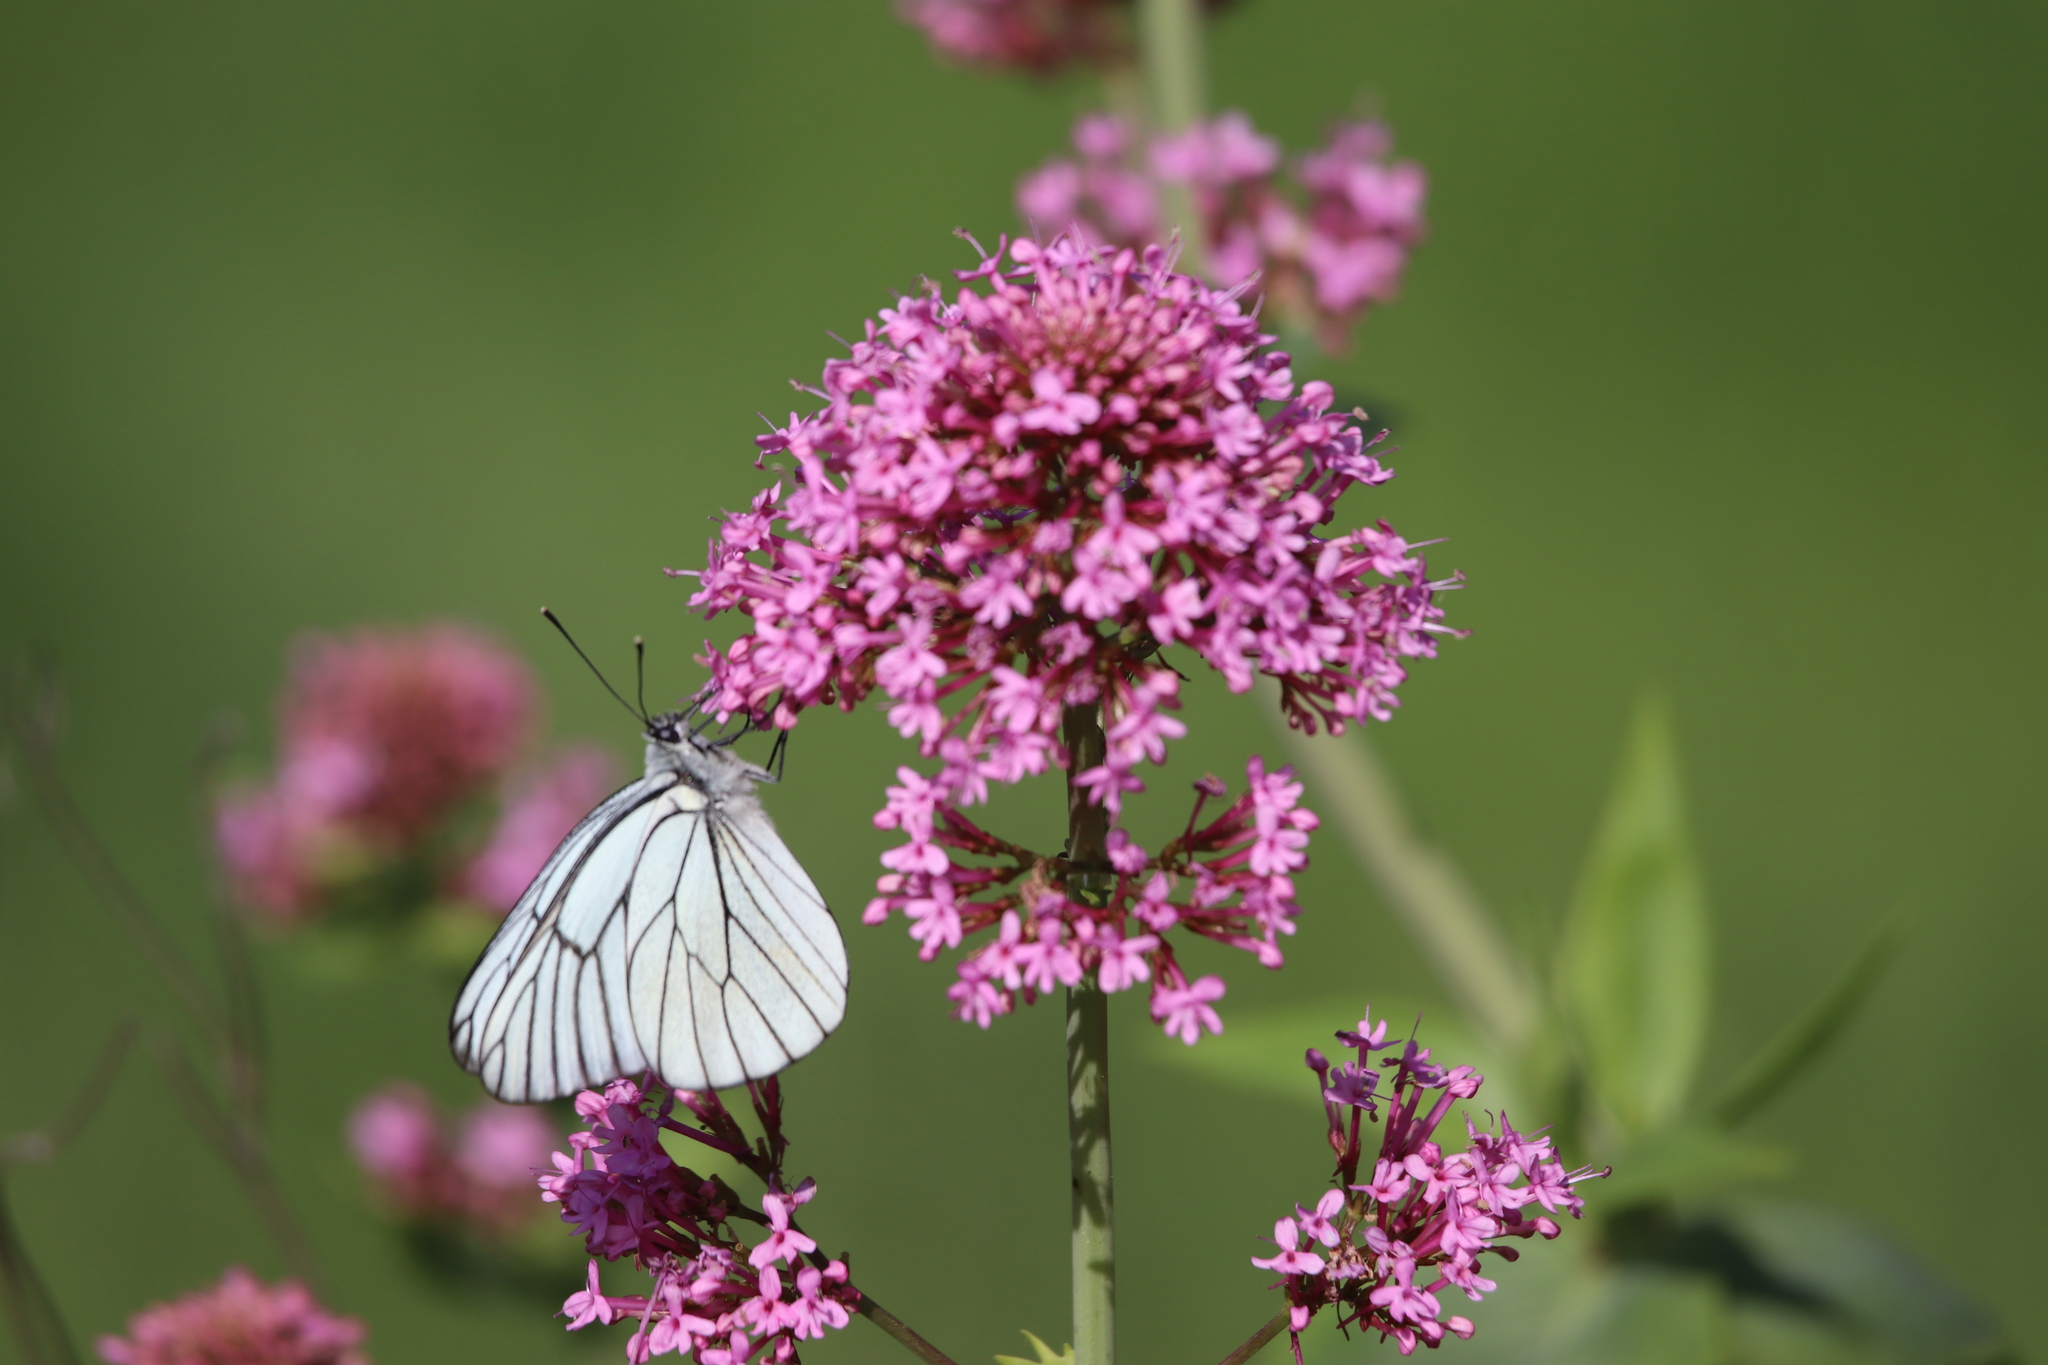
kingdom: Animalia
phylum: Arthropoda
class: Insecta
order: Lepidoptera
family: Pieridae
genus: Aporia
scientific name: Aporia crataegi
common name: Black-veined white
